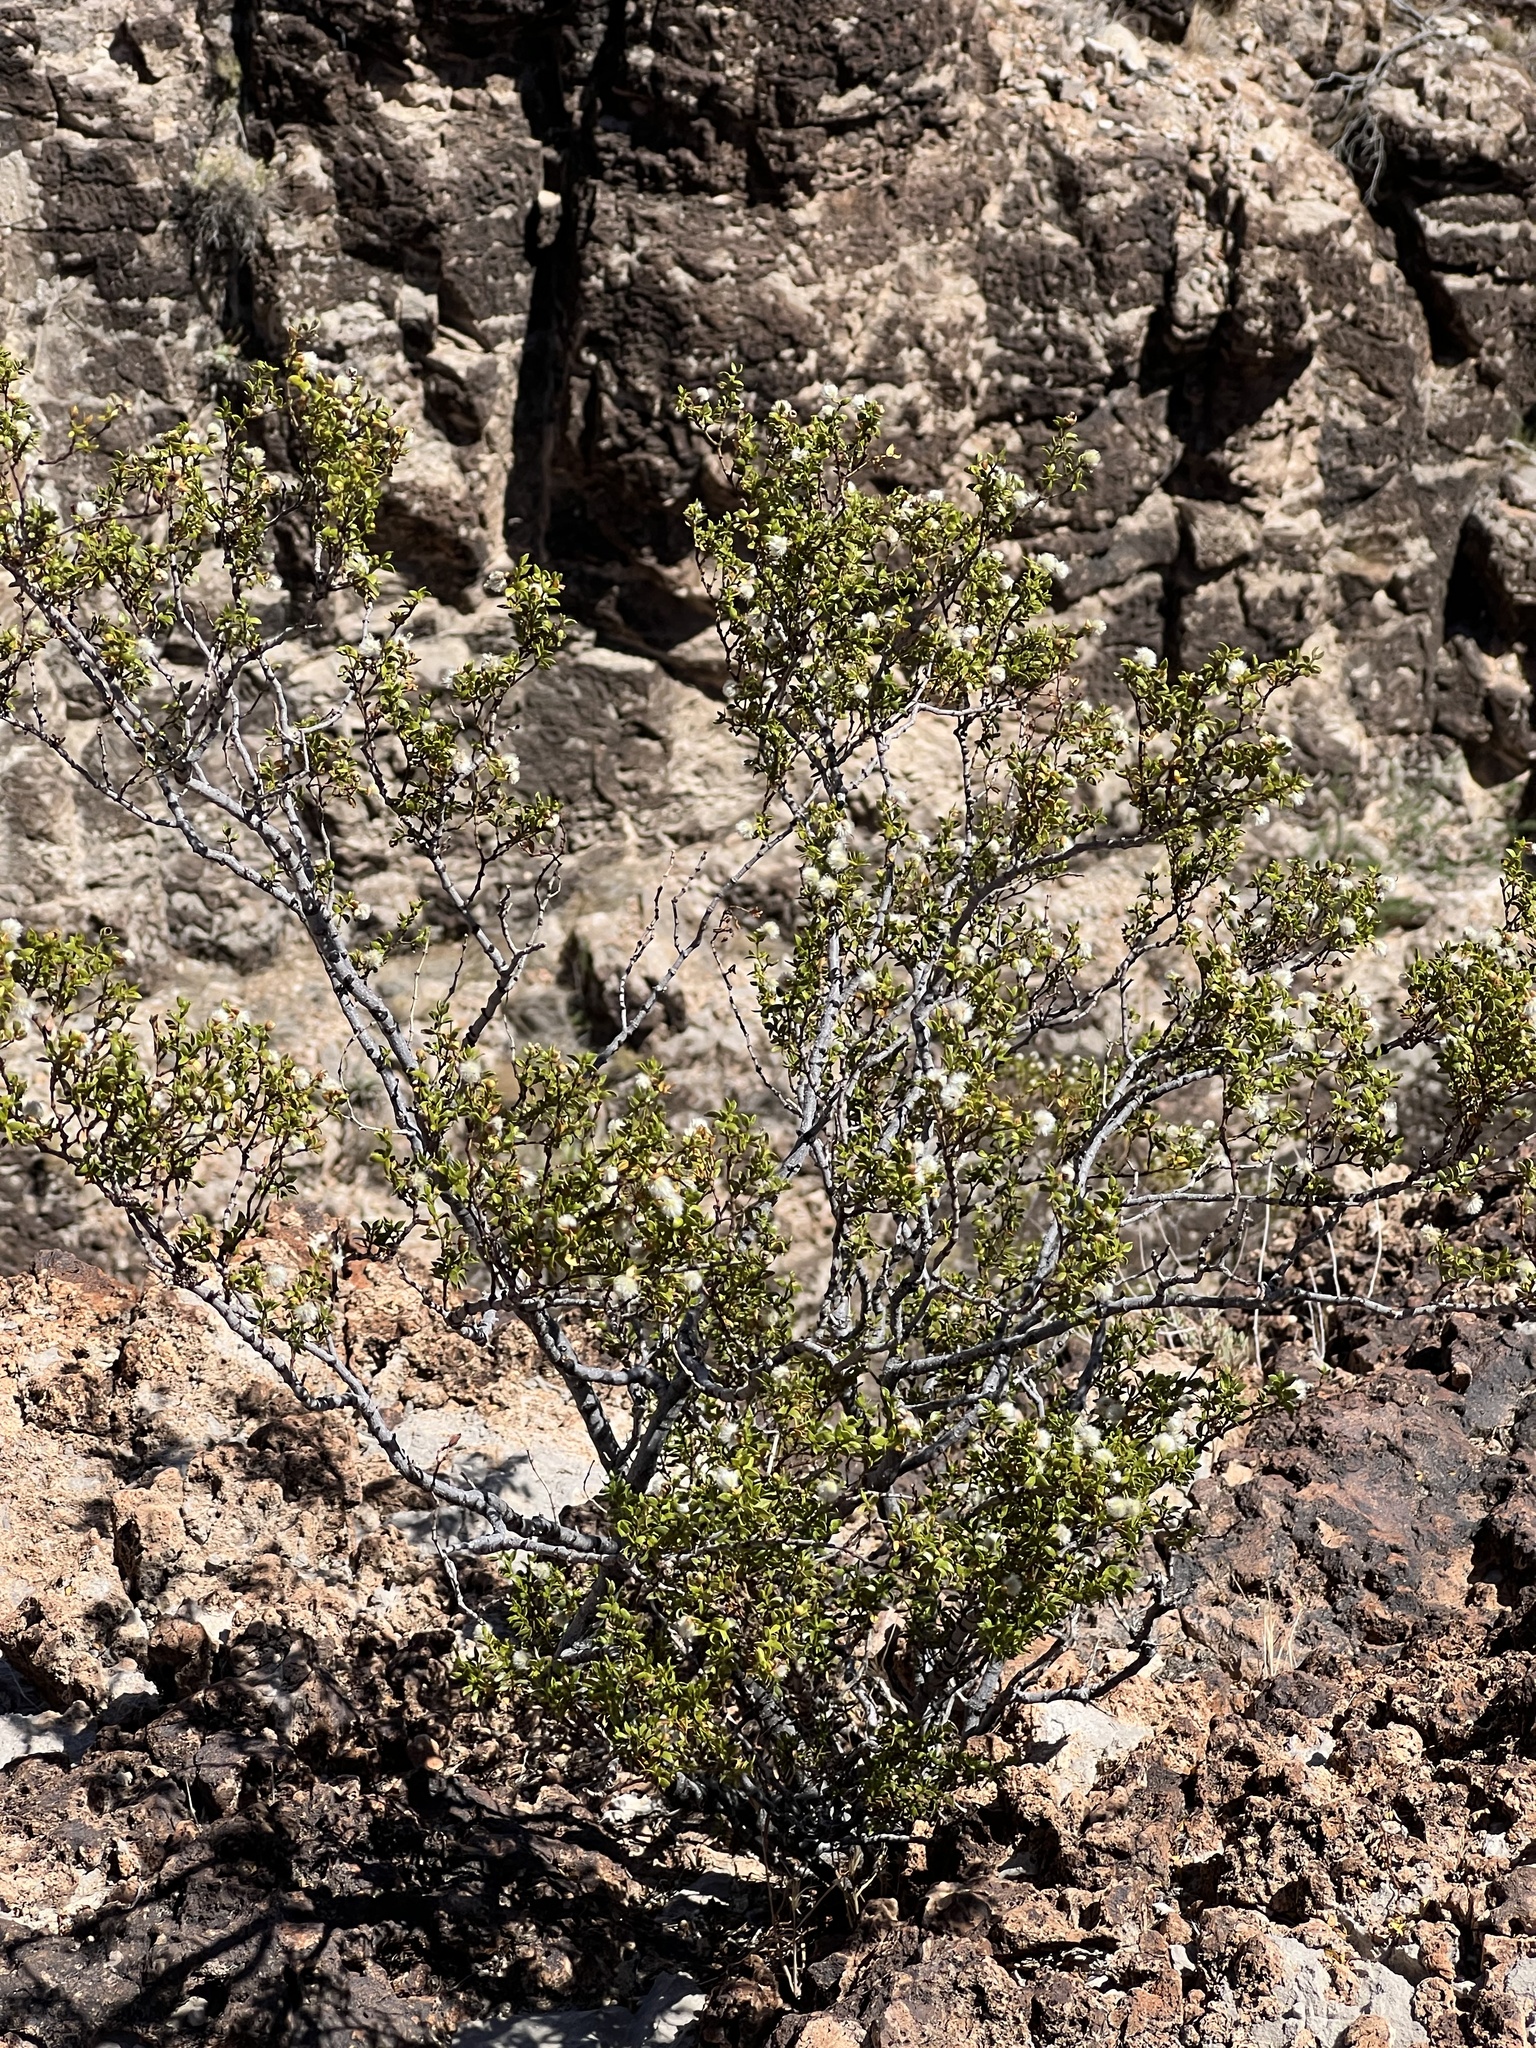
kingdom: Plantae
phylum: Tracheophyta
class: Magnoliopsida
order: Zygophyllales
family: Zygophyllaceae
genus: Larrea
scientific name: Larrea tridentata
